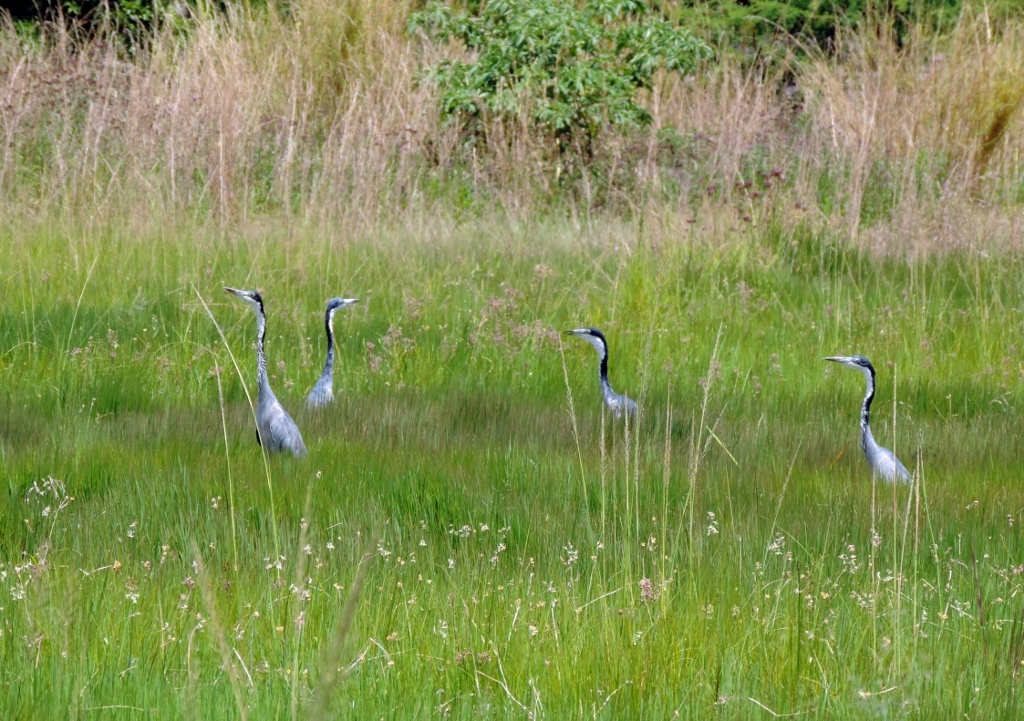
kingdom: Animalia
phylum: Chordata
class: Aves
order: Pelecaniformes
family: Ardeidae
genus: Ardea
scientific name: Ardea melanocephala
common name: Black-headed heron
